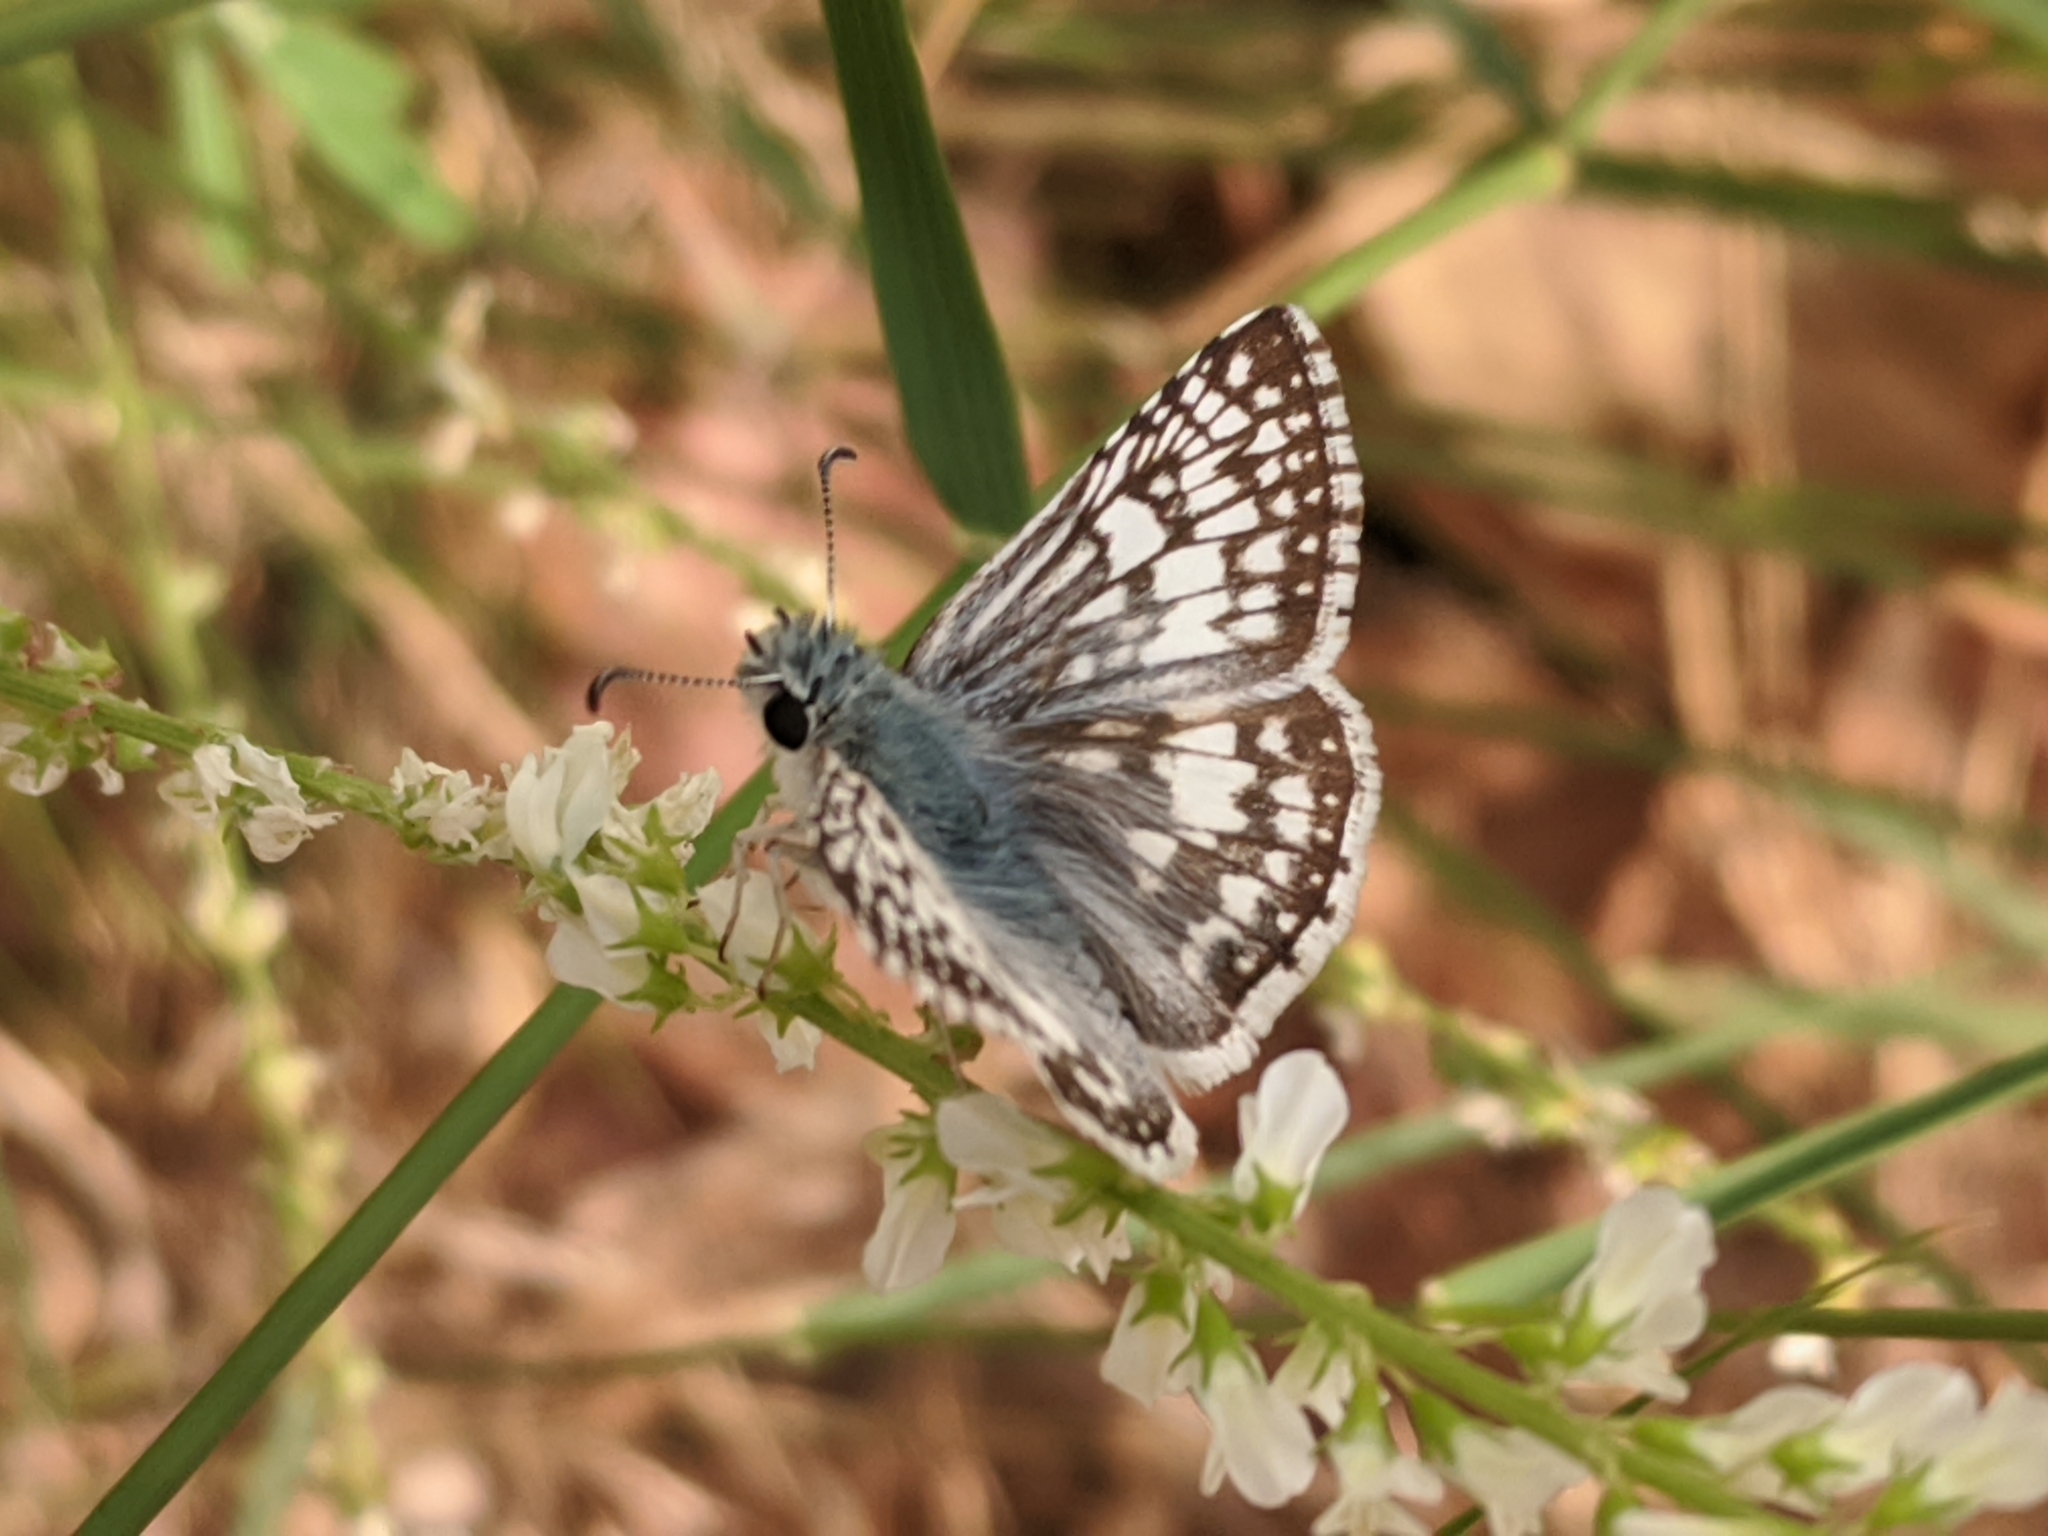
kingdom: Animalia
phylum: Arthropoda
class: Insecta
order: Lepidoptera
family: Hesperiidae
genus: Burnsius
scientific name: Burnsius communis
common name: Common checkered-skipper
